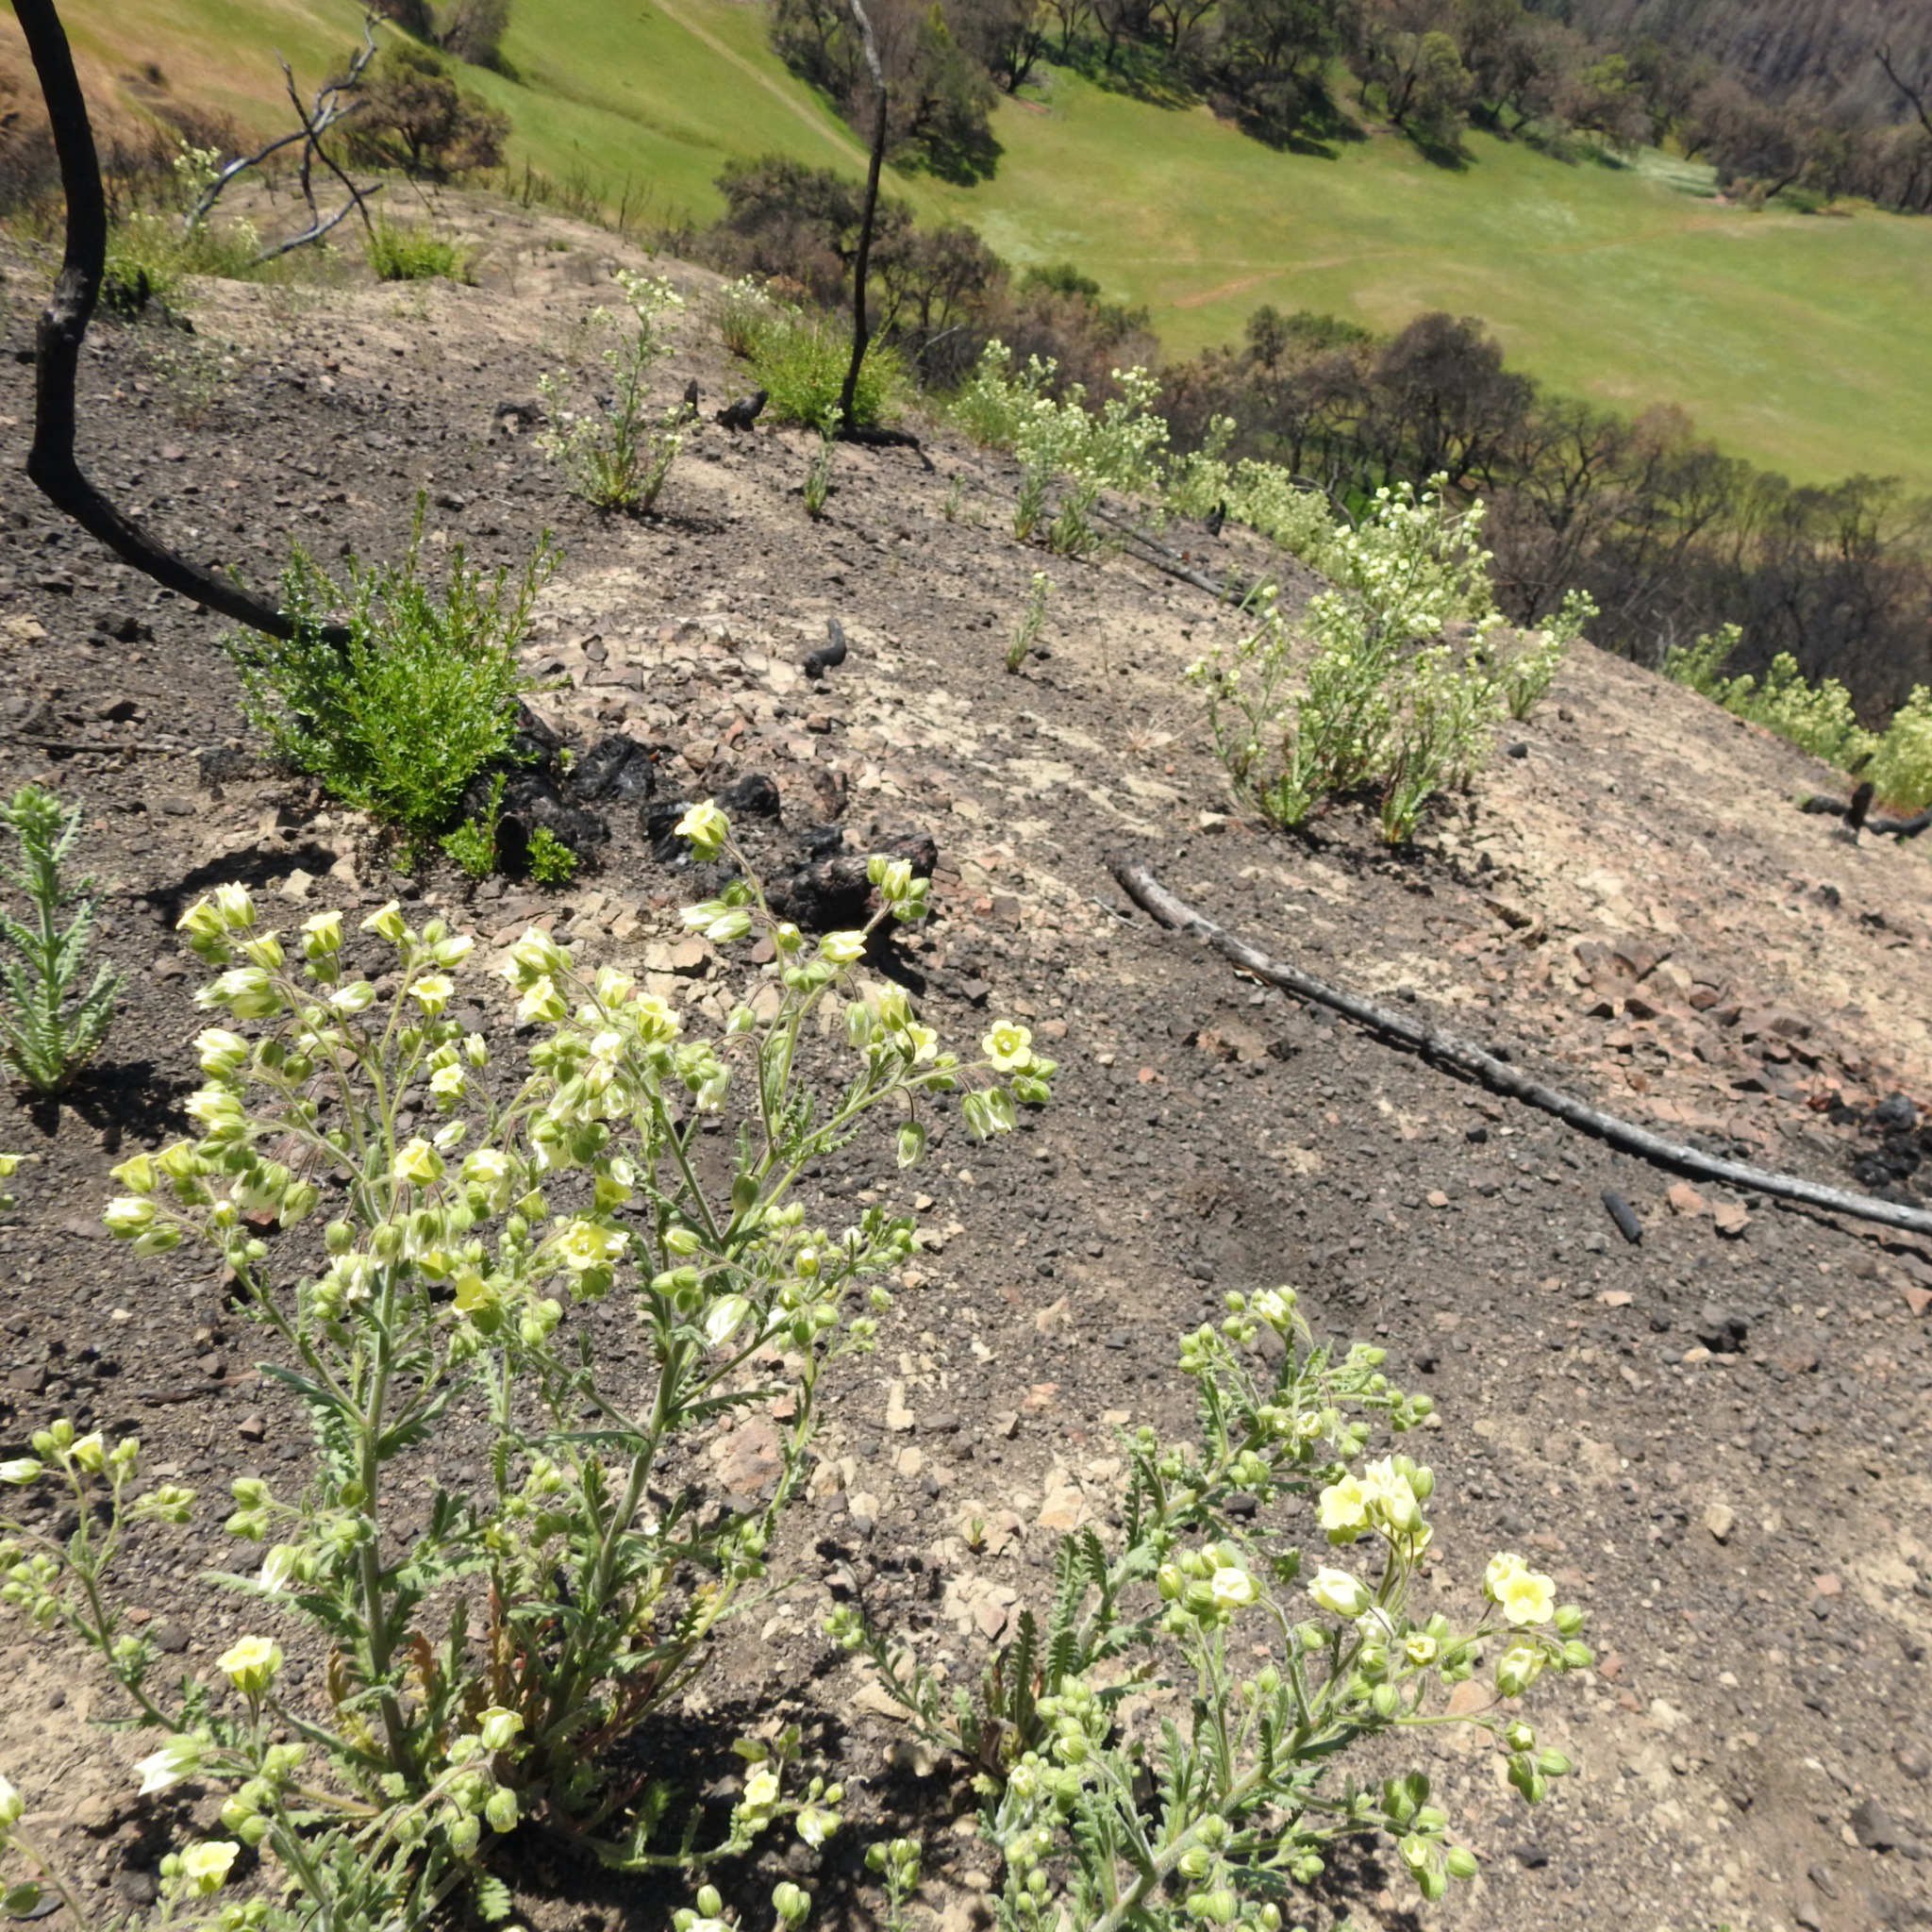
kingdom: Plantae
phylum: Tracheophyta
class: Magnoliopsida
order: Rosales
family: Rosaceae
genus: Adenostoma
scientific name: Adenostoma fasciculatum
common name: Chamise
